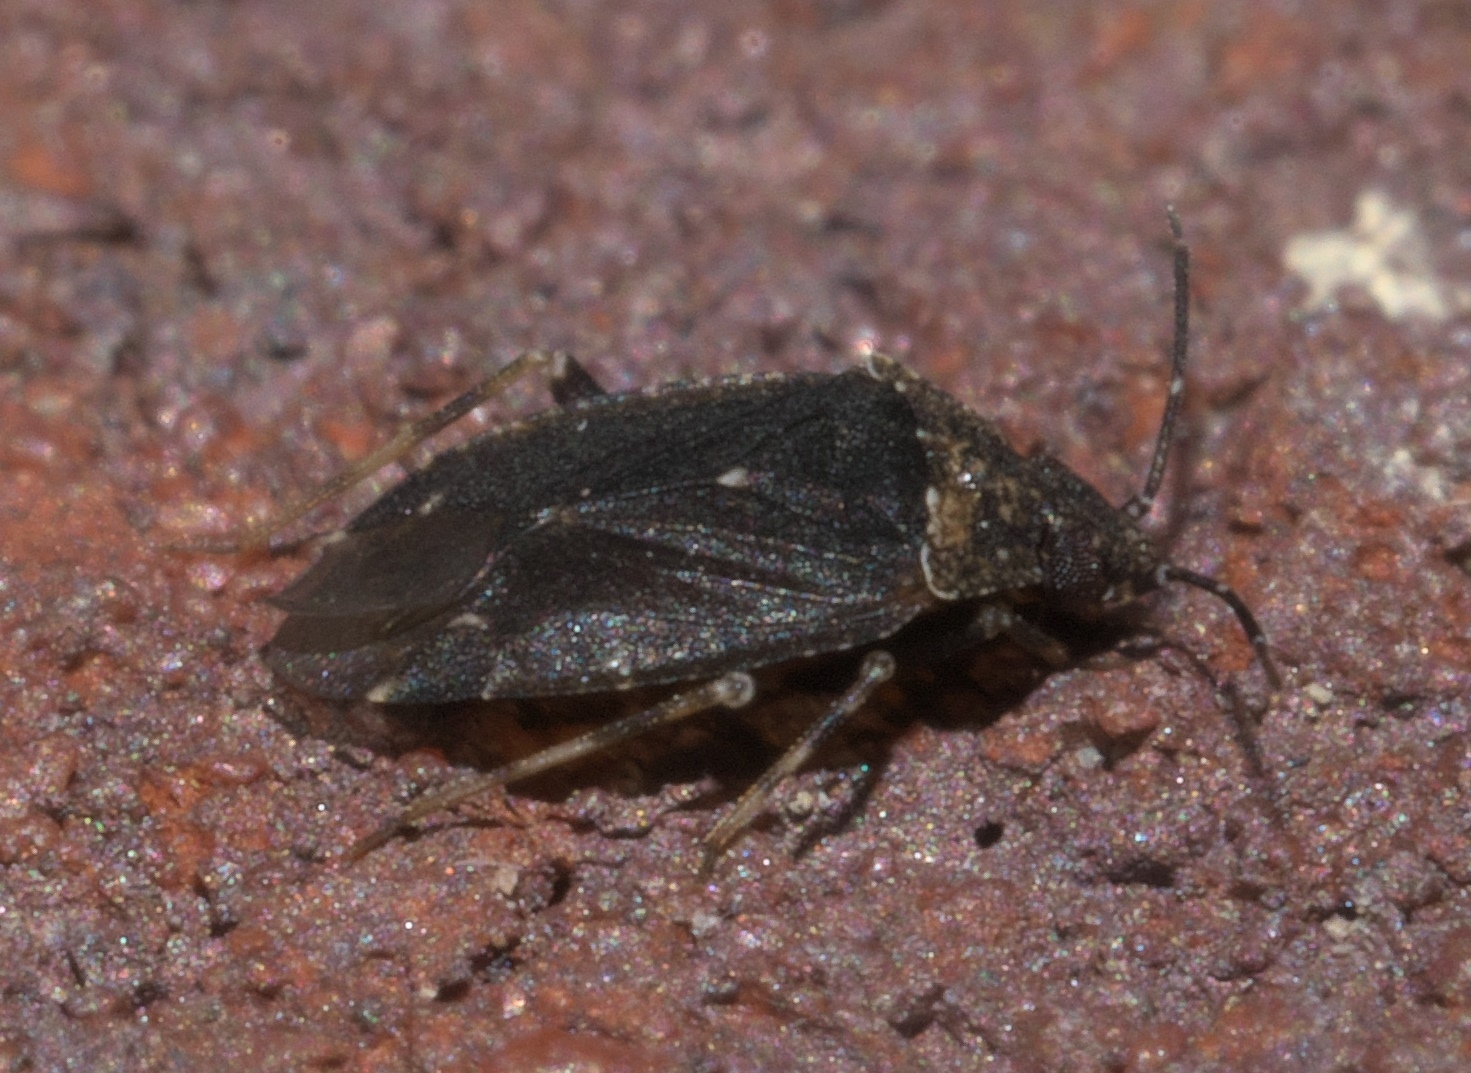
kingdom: Animalia
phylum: Arthropoda
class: Insecta
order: Hemiptera
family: Miridae
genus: Peritropis
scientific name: Peritropis saldaeformis
